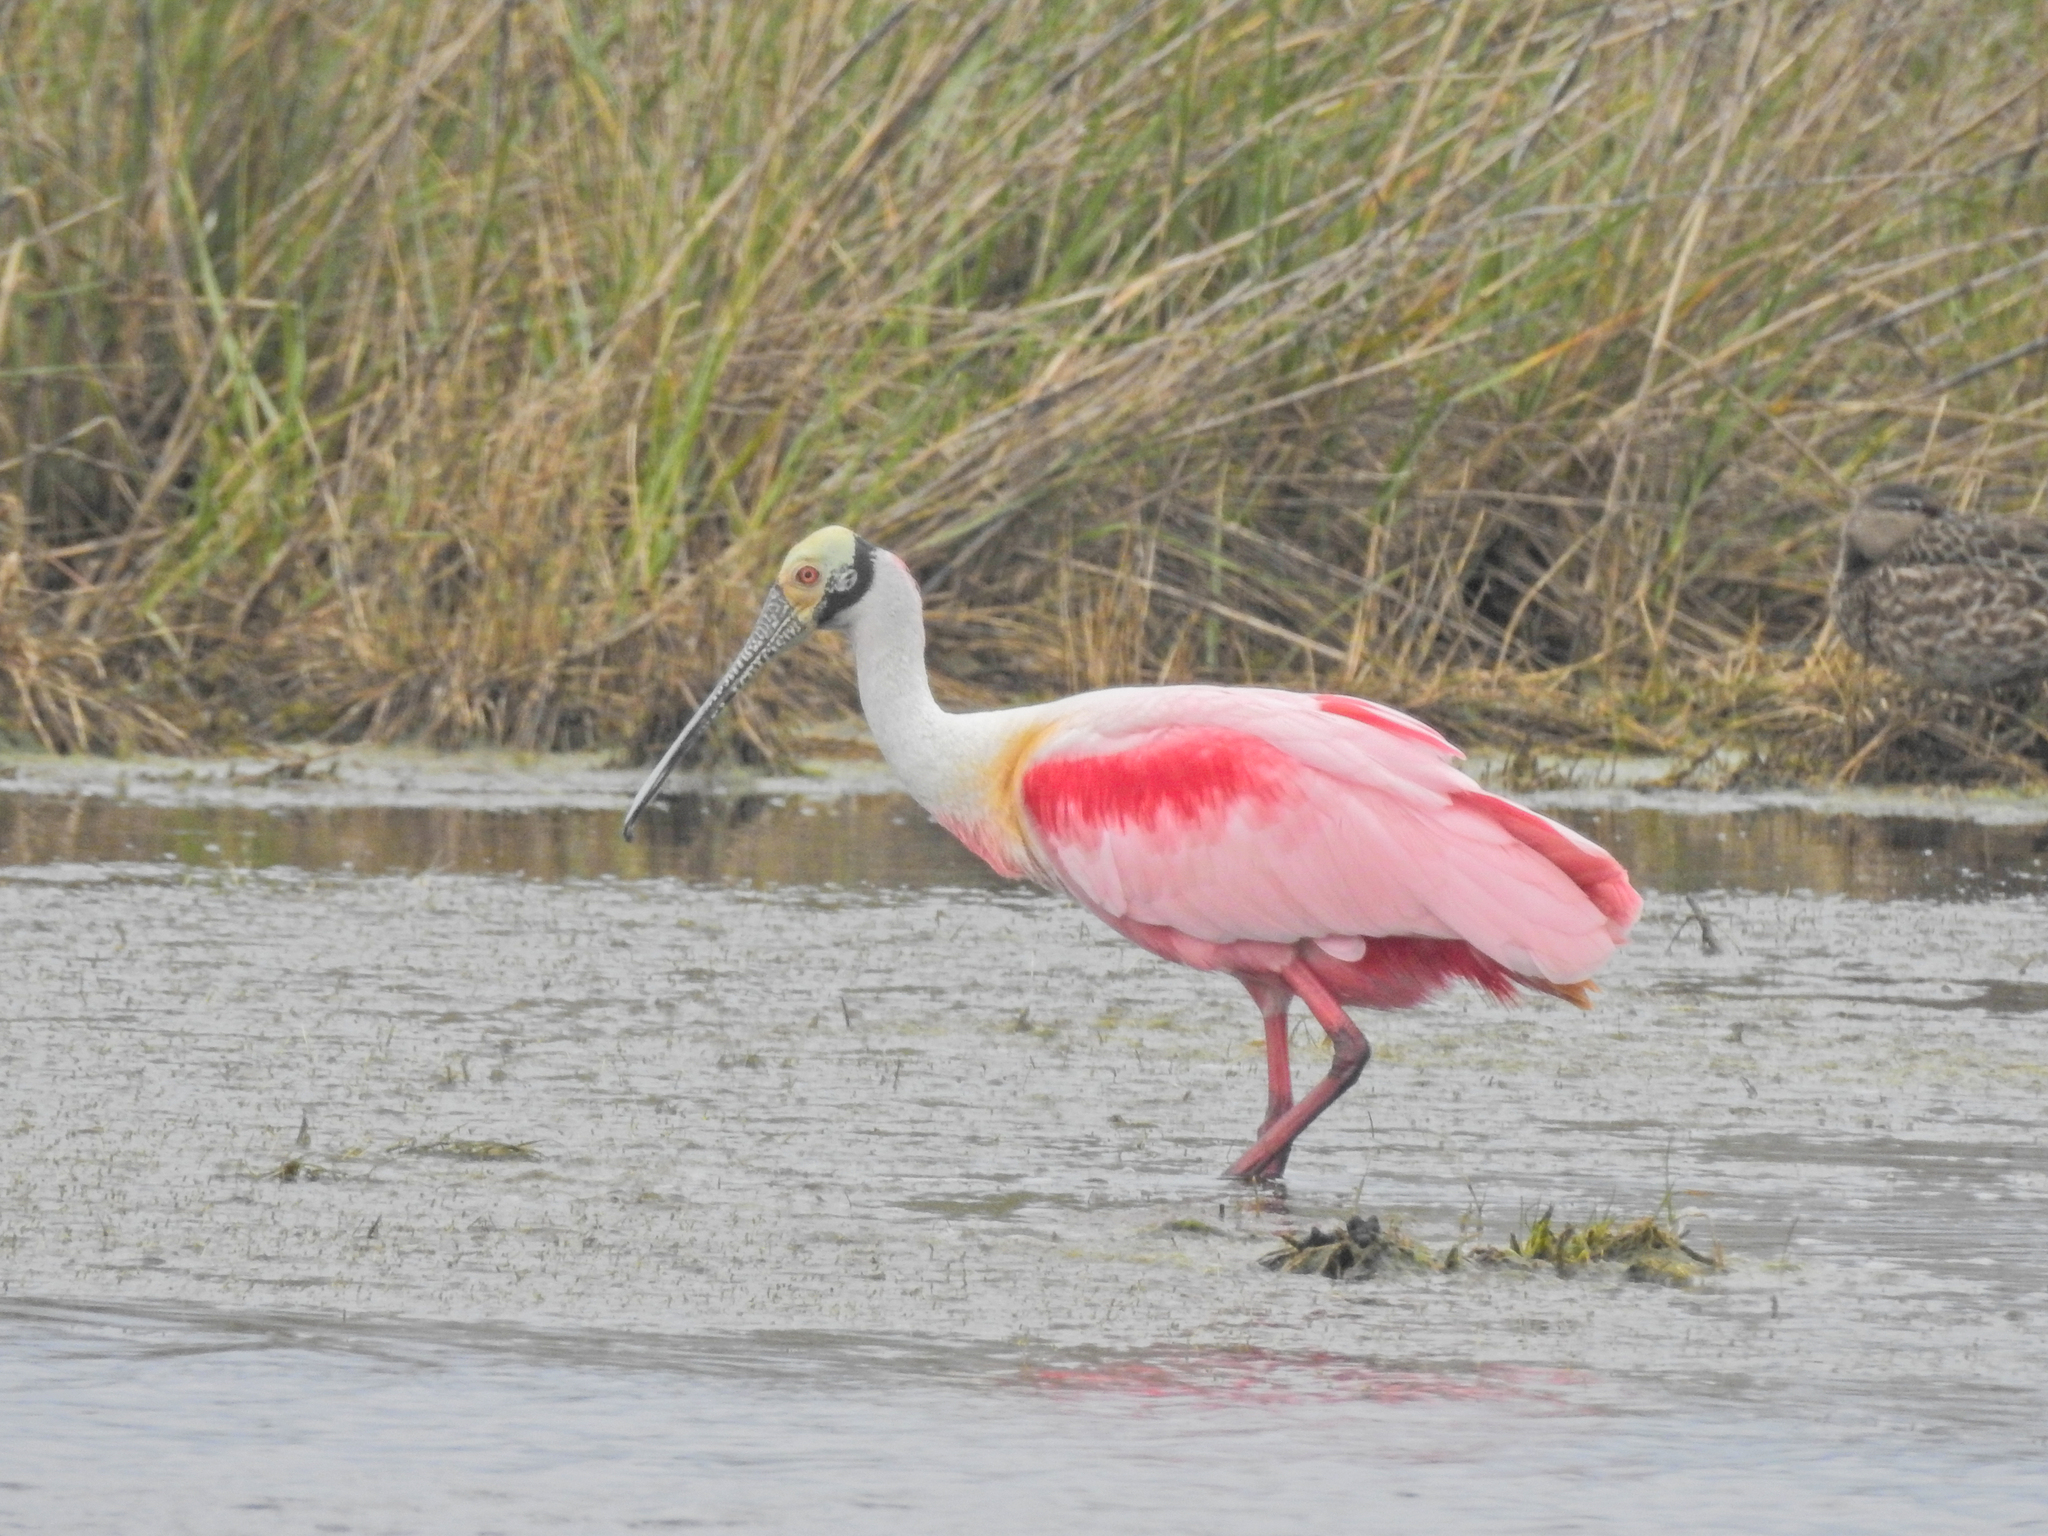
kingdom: Animalia
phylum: Chordata
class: Aves
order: Pelecaniformes
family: Threskiornithidae
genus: Platalea
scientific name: Platalea ajaja
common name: Roseate spoonbill
